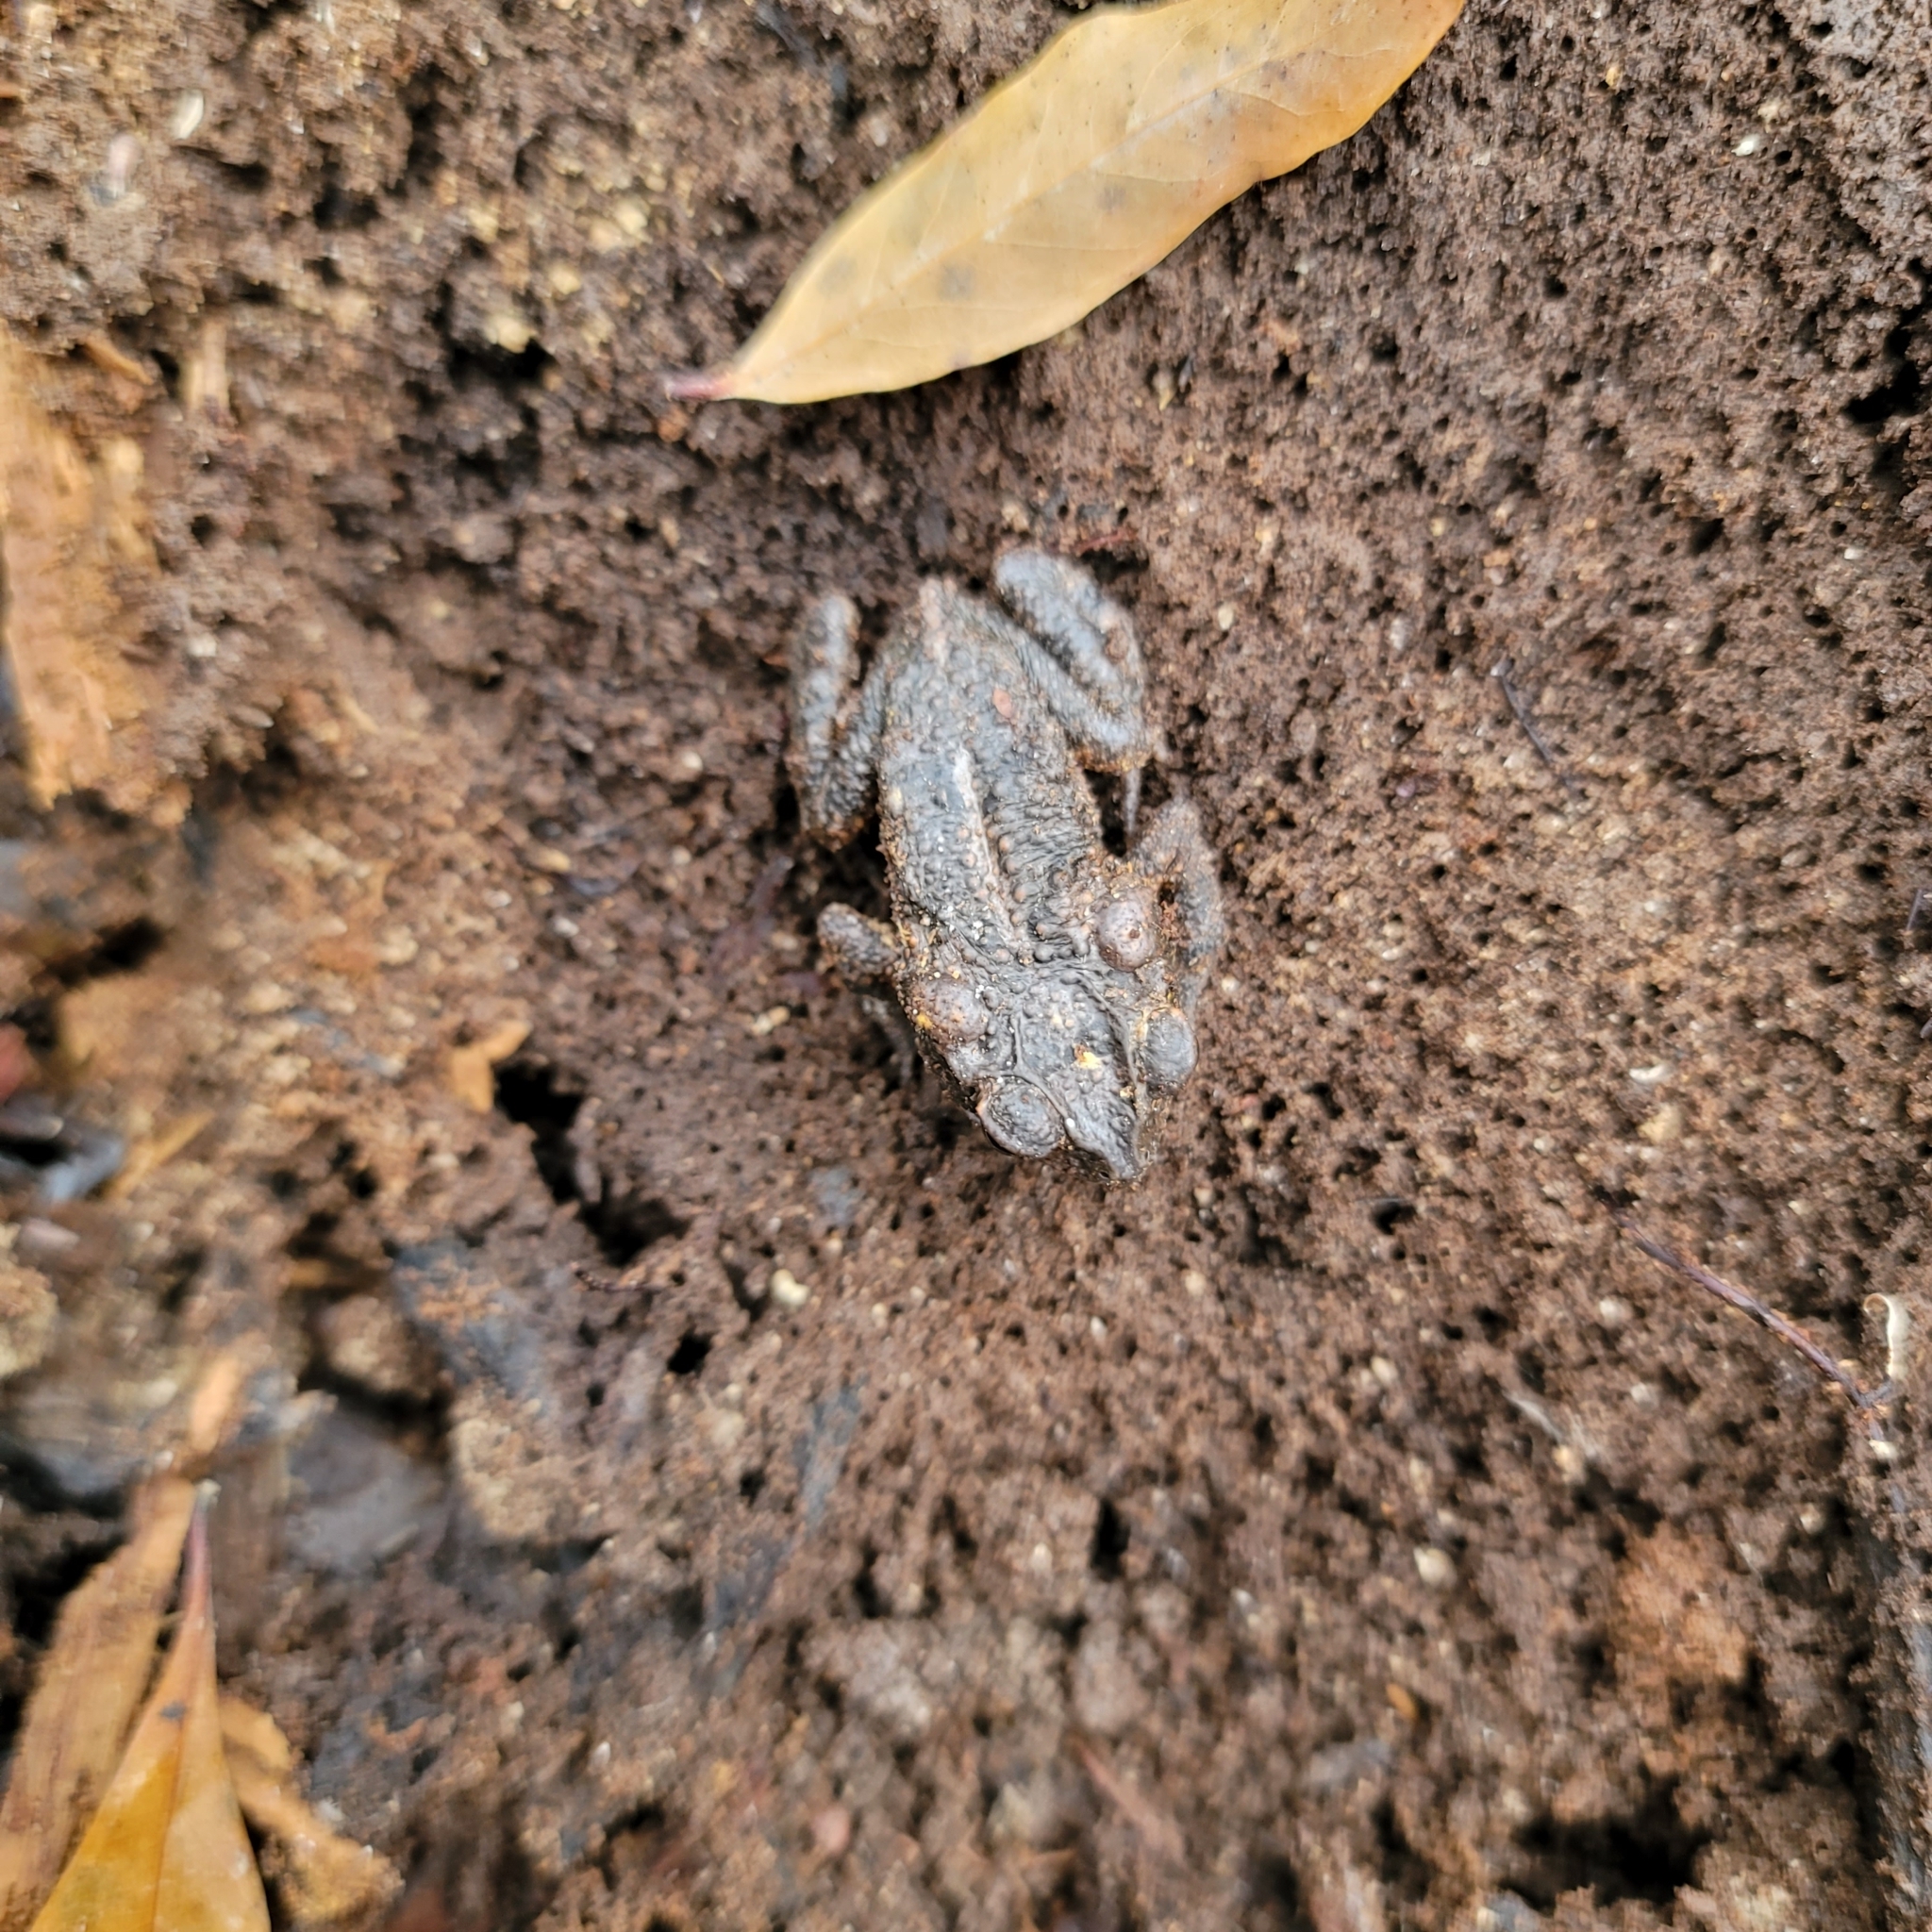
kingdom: Animalia
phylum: Chordata
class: Amphibia
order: Anura
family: Bufonidae
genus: Incilius
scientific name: Incilius nebulifer
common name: Gulf coast toad
